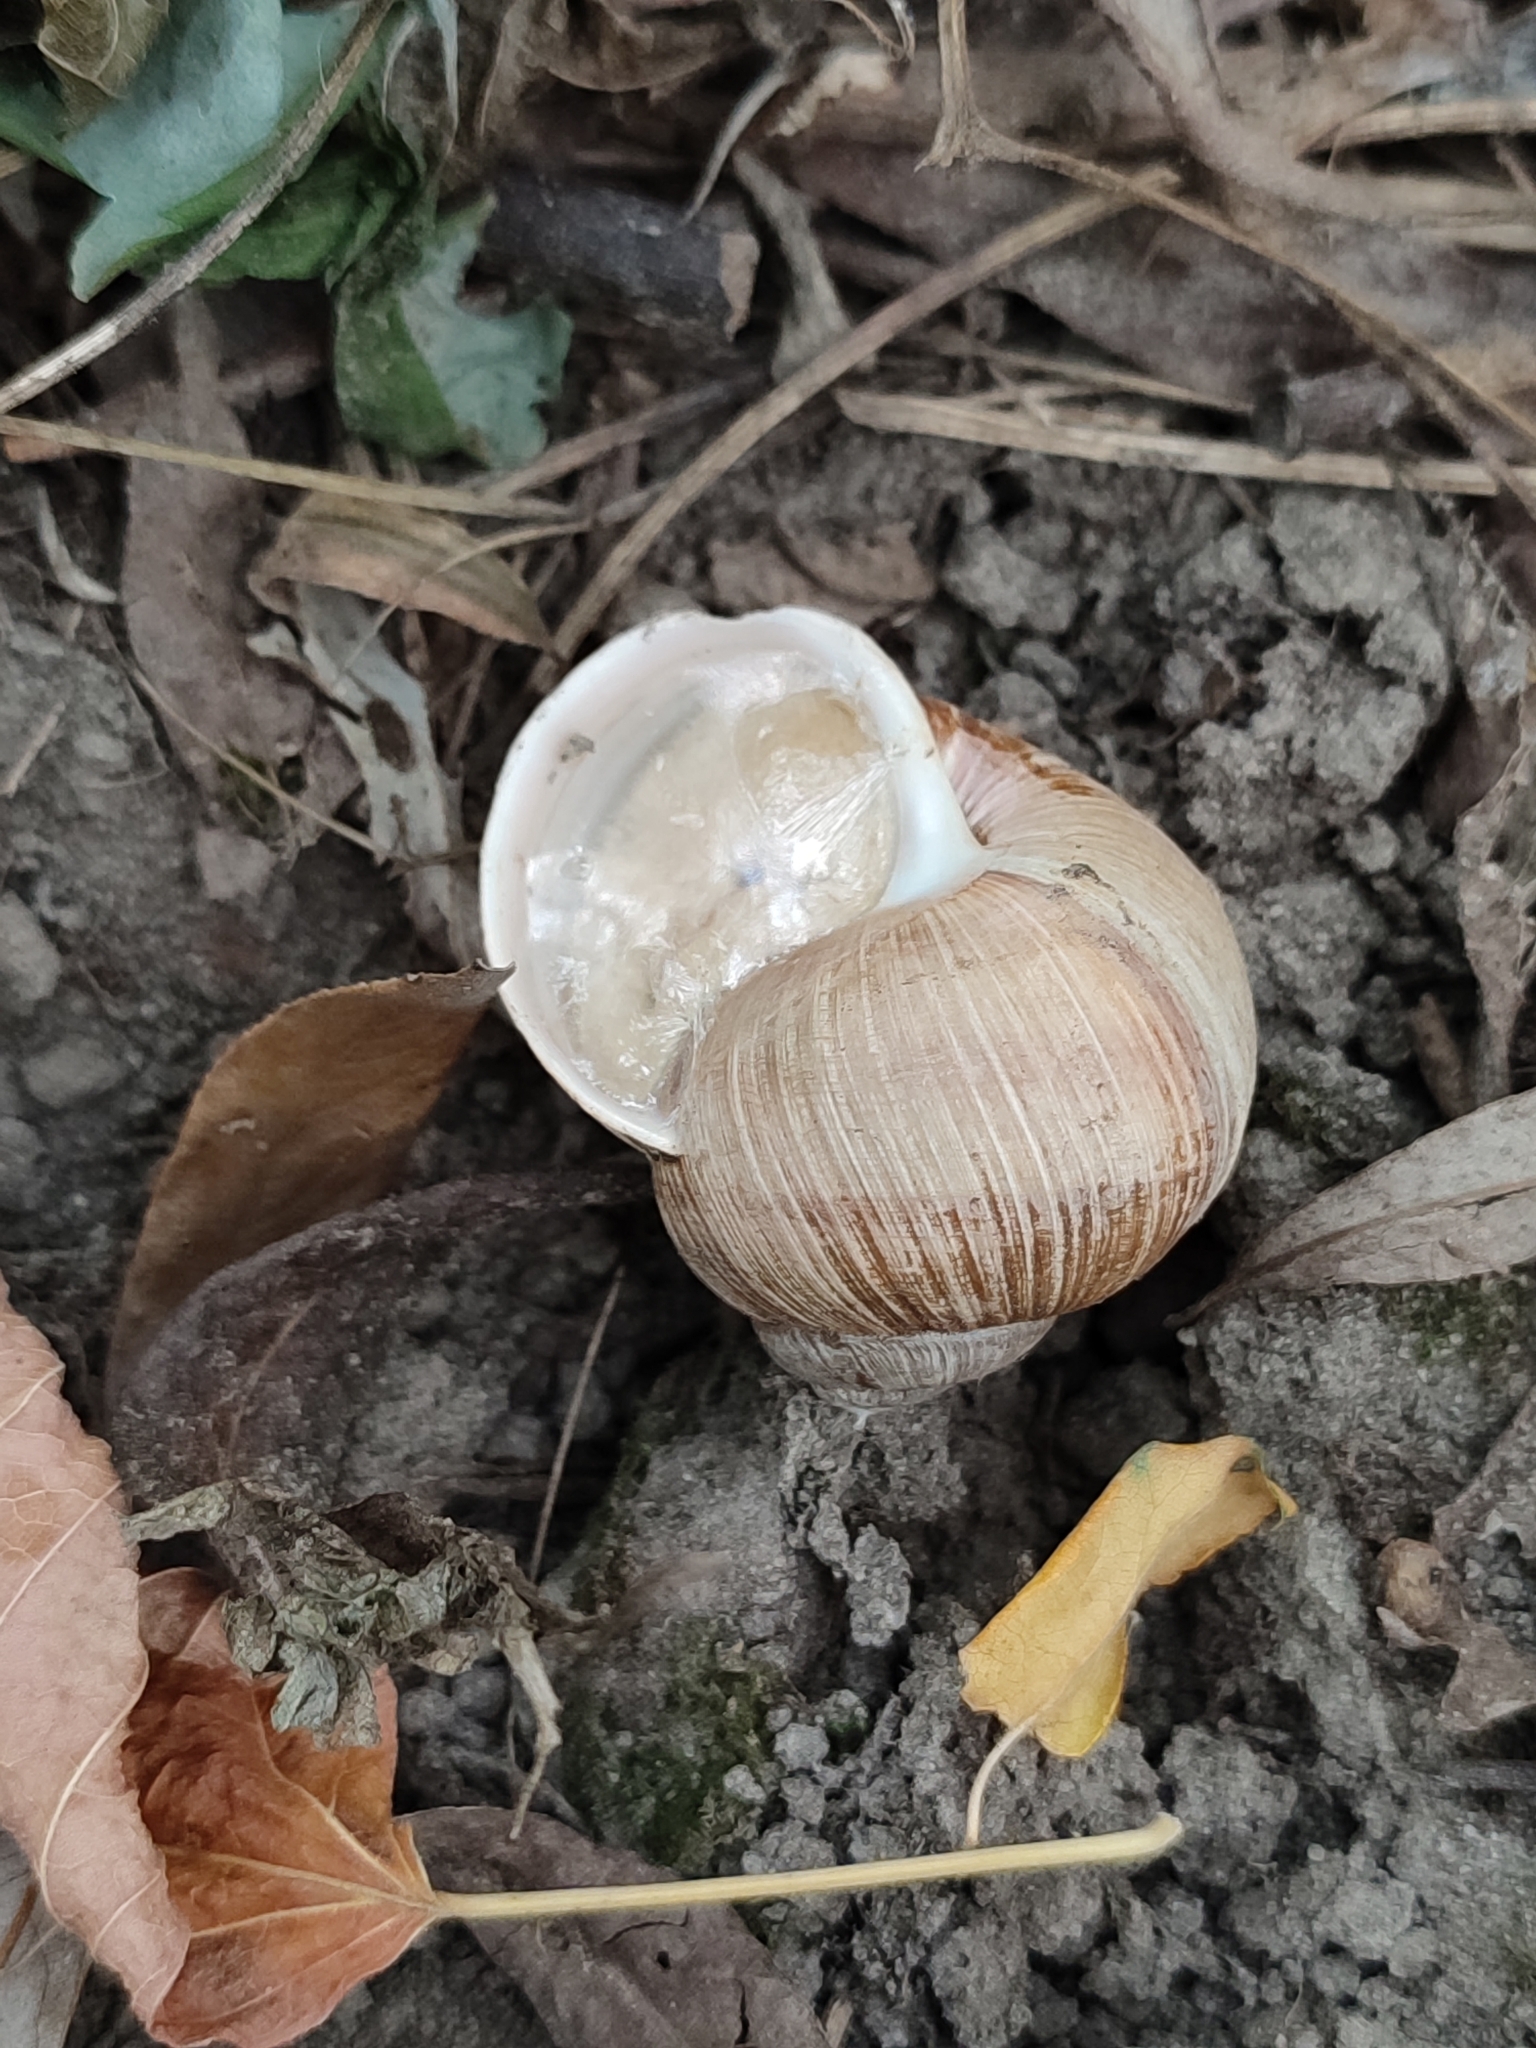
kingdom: Animalia
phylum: Mollusca
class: Gastropoda
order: Stylommatophora
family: Helicidae
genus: Helix
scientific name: Helix pomatia
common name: Roman snail
